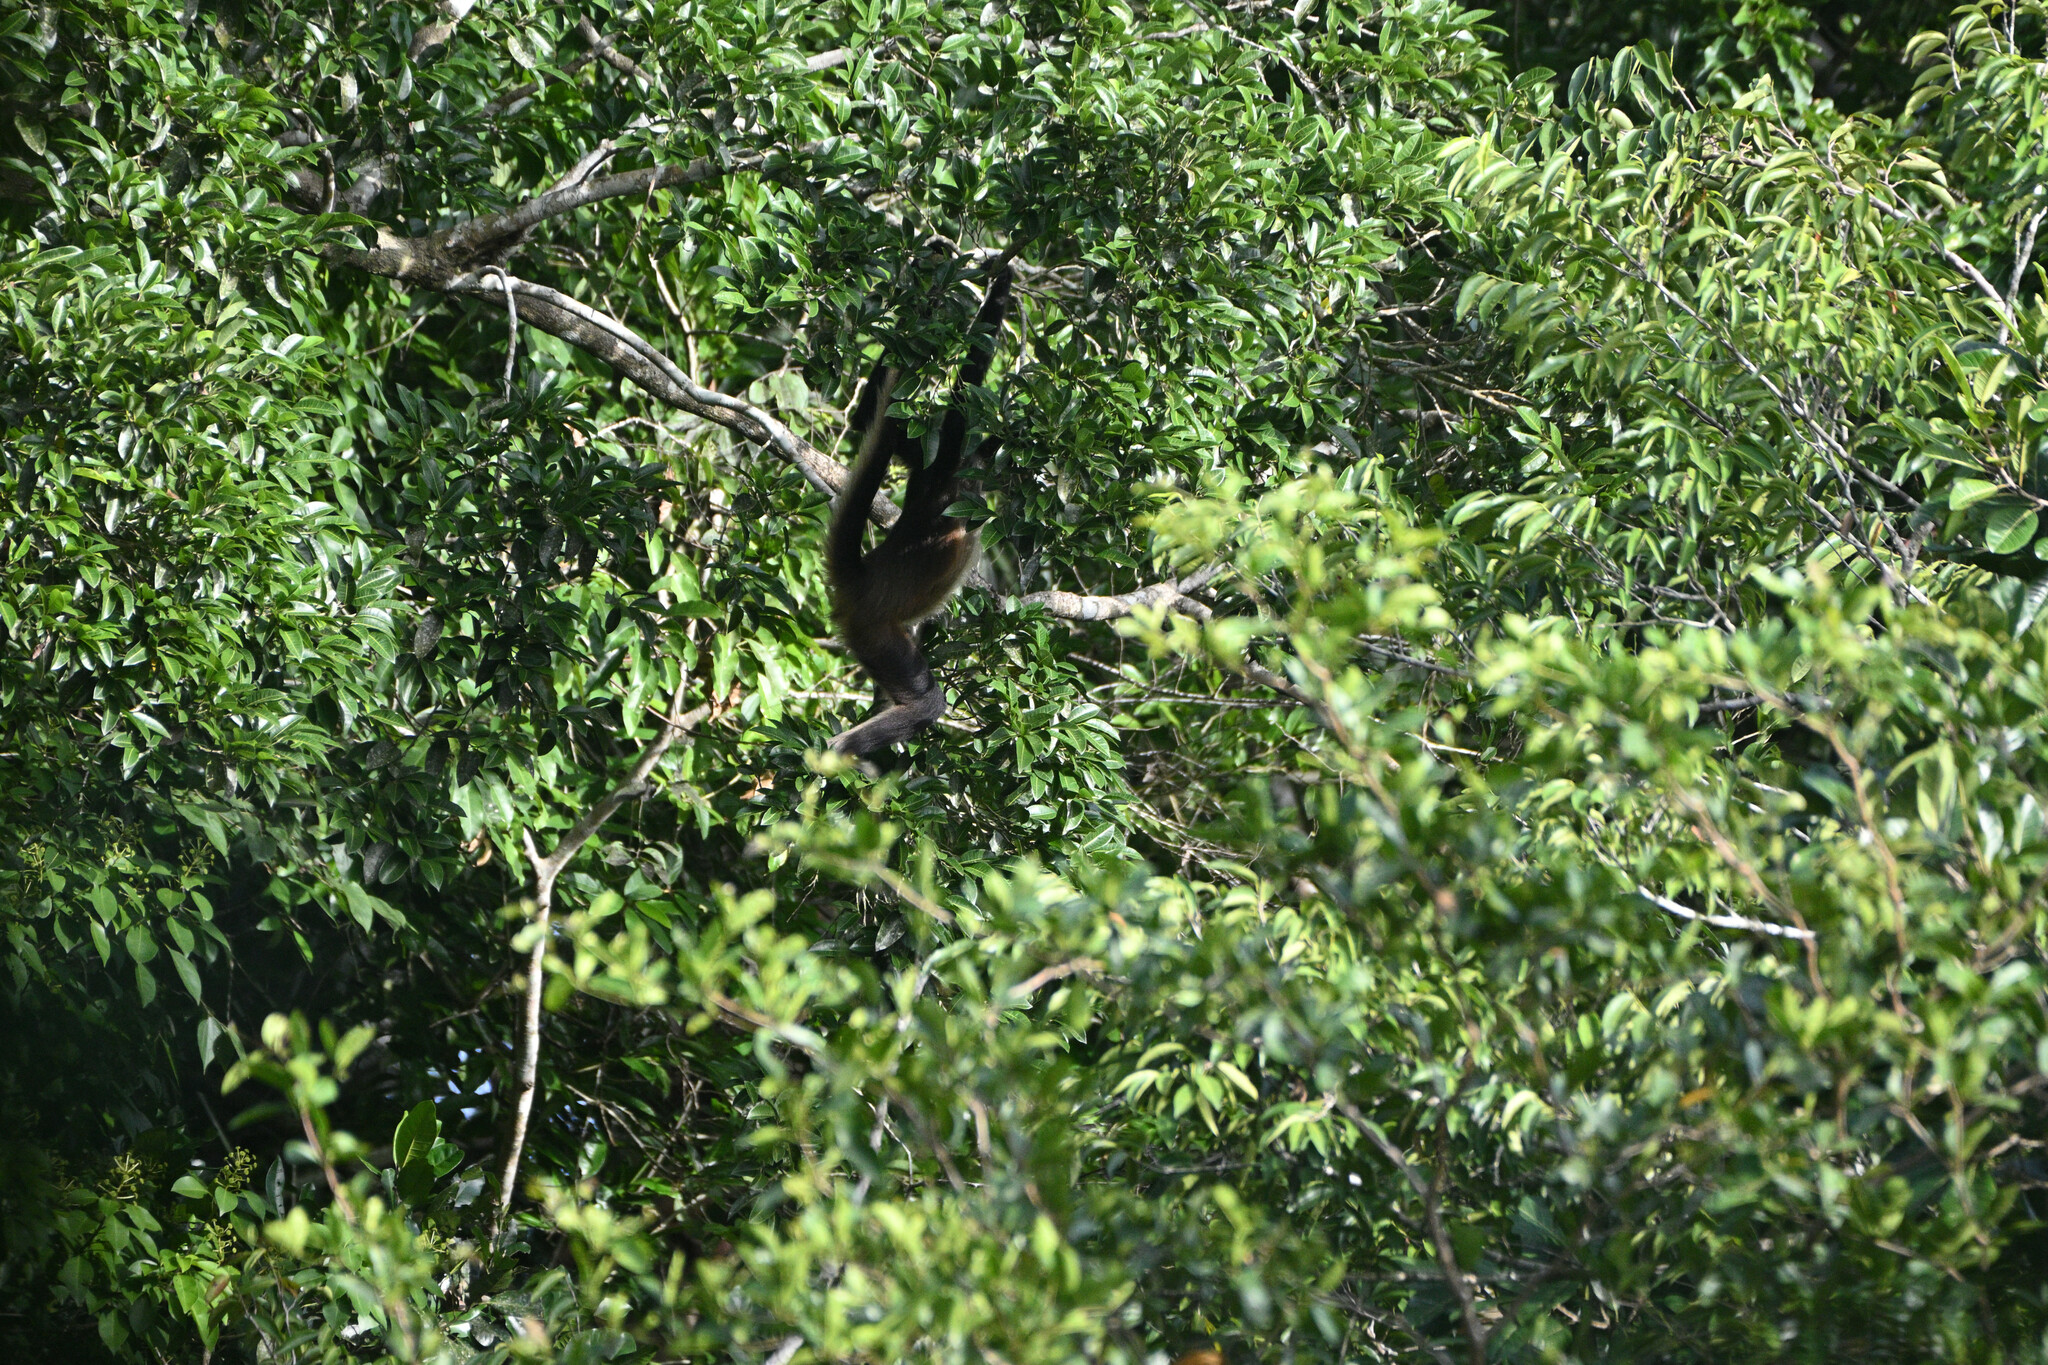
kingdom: Animalia
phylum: Chordata
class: Mammalia
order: Primates
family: Atelidae
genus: Ateles
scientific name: Ateles geoffroyi
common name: Black-handed spider monkey
